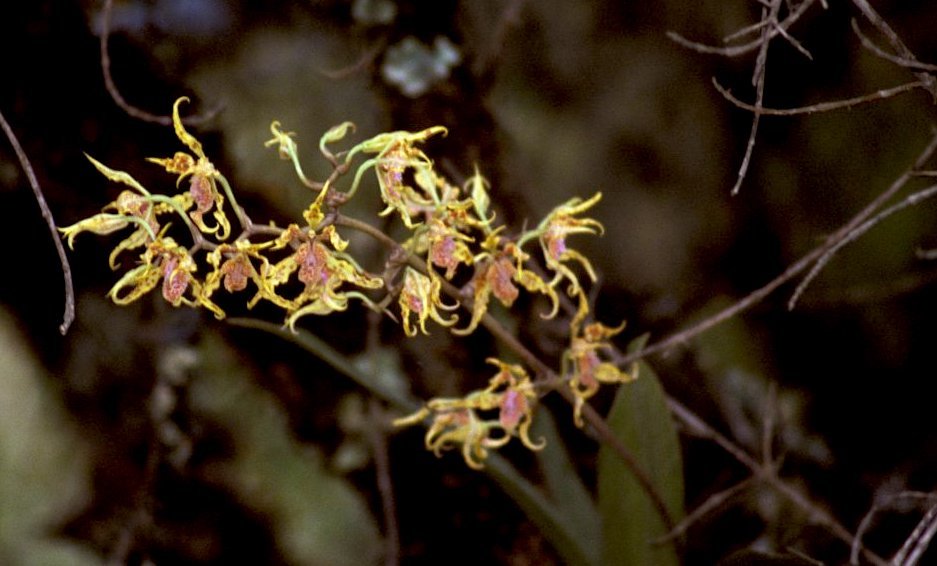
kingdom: Plantae
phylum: Tracheophyta
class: Liliopsida
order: Asparagales
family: Orchidaceae
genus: Cyrtochilum
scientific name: Cyrtochilum tetraplasium
